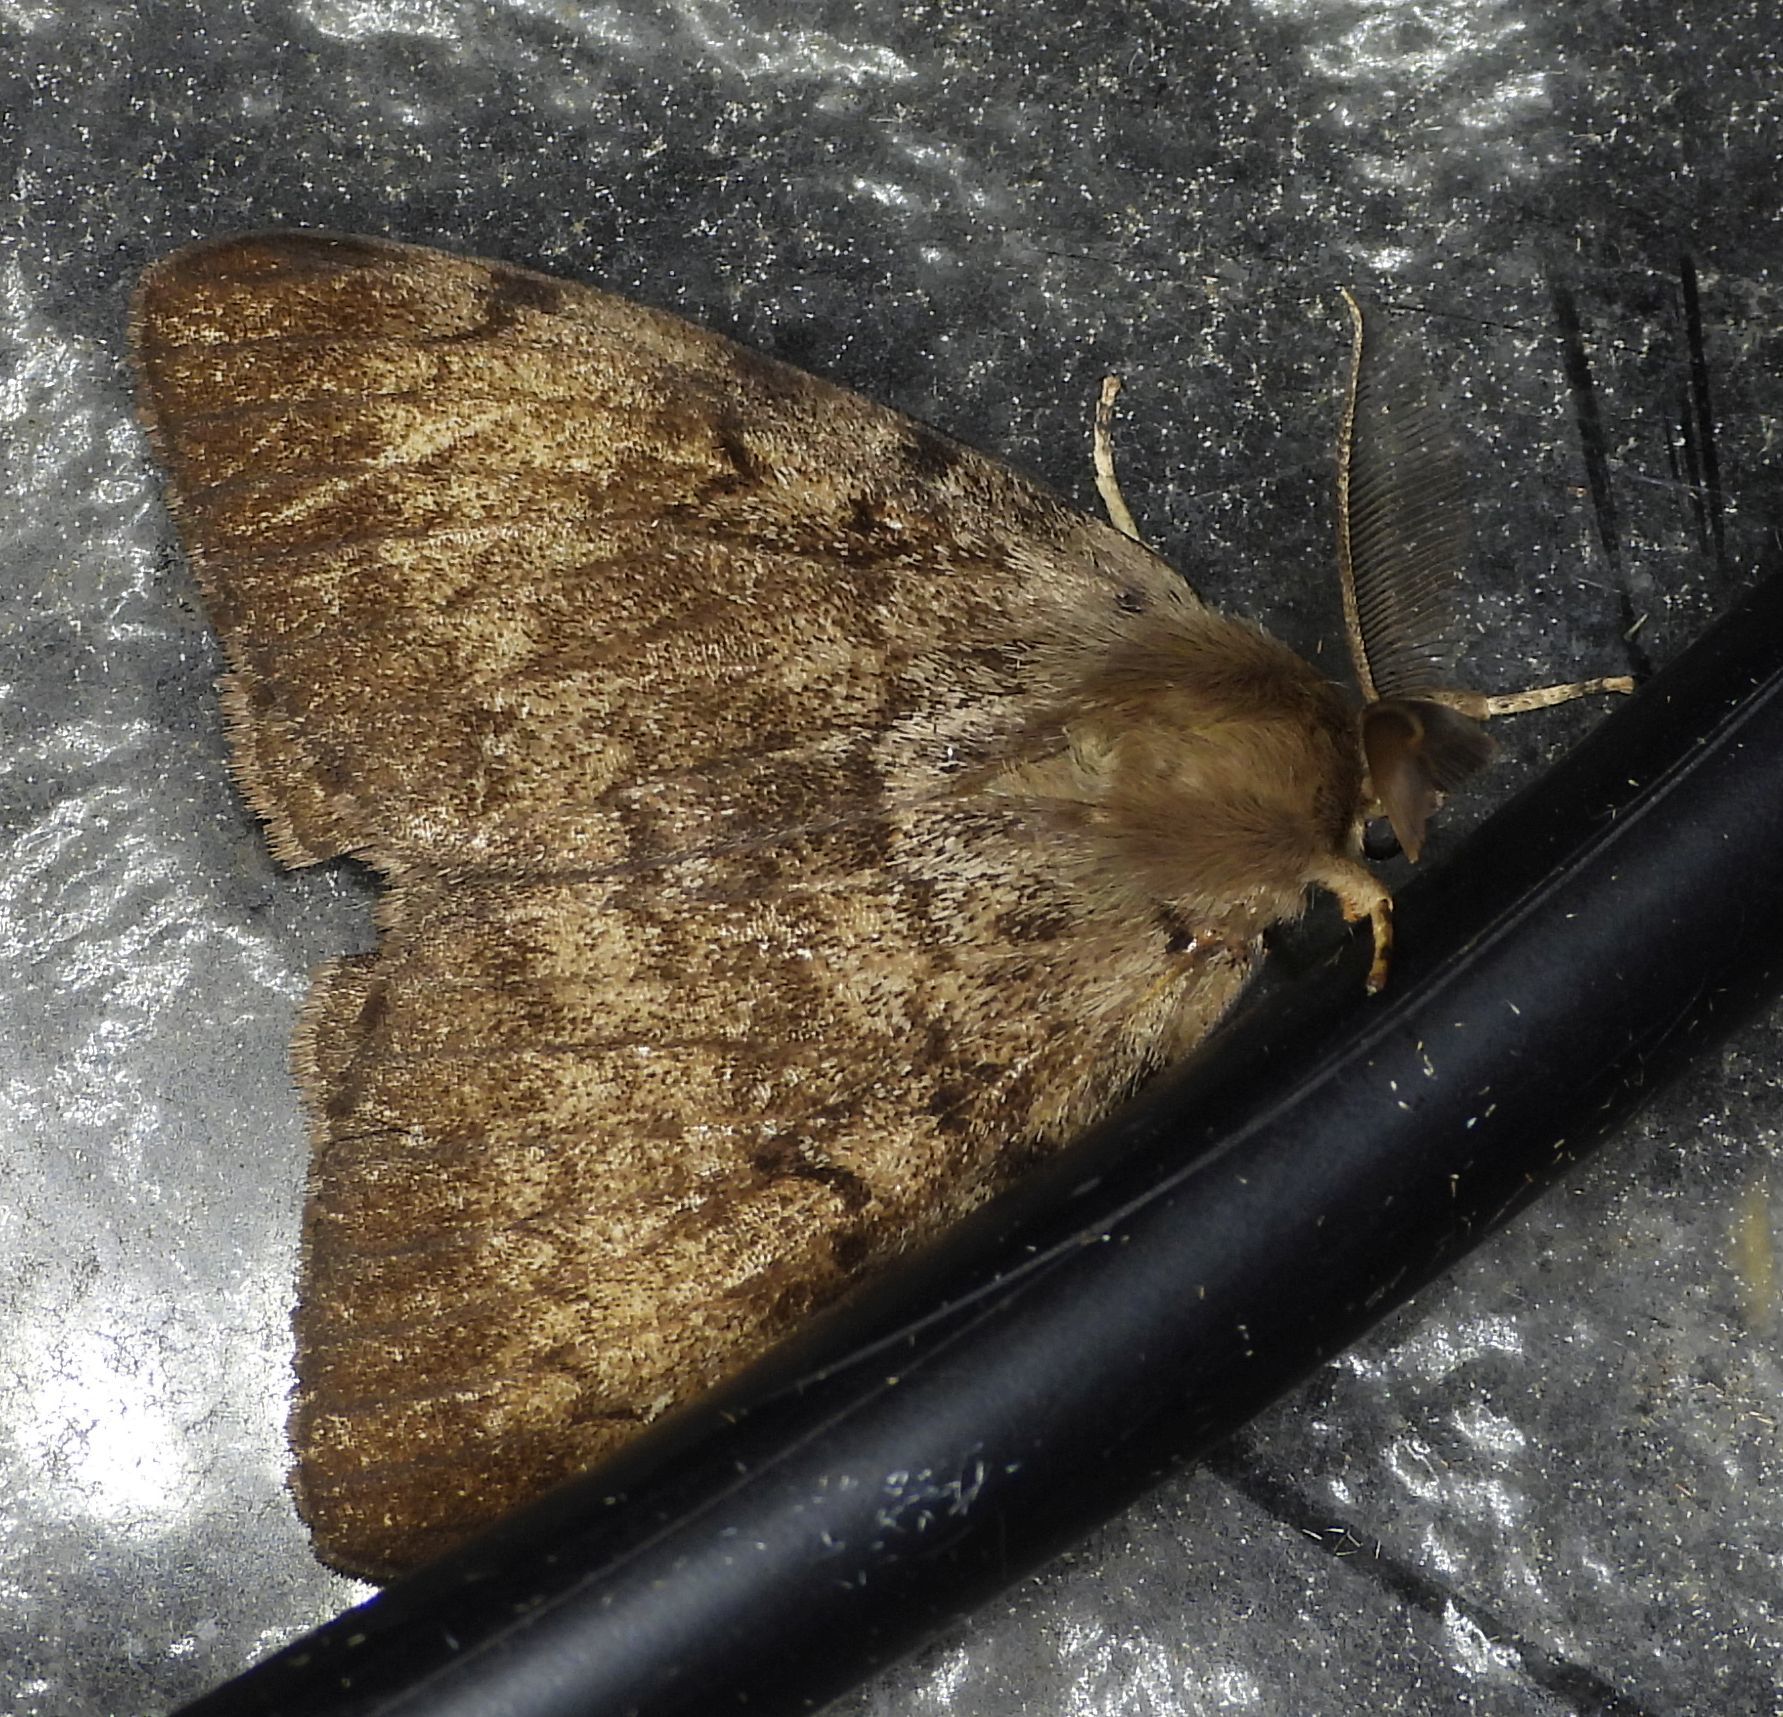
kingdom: Animalia
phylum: Arthropoda
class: Insecta
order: Lepidoptera
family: Erebidae
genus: Lymantria
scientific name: Lymantria dispar
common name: Gypsy moth
